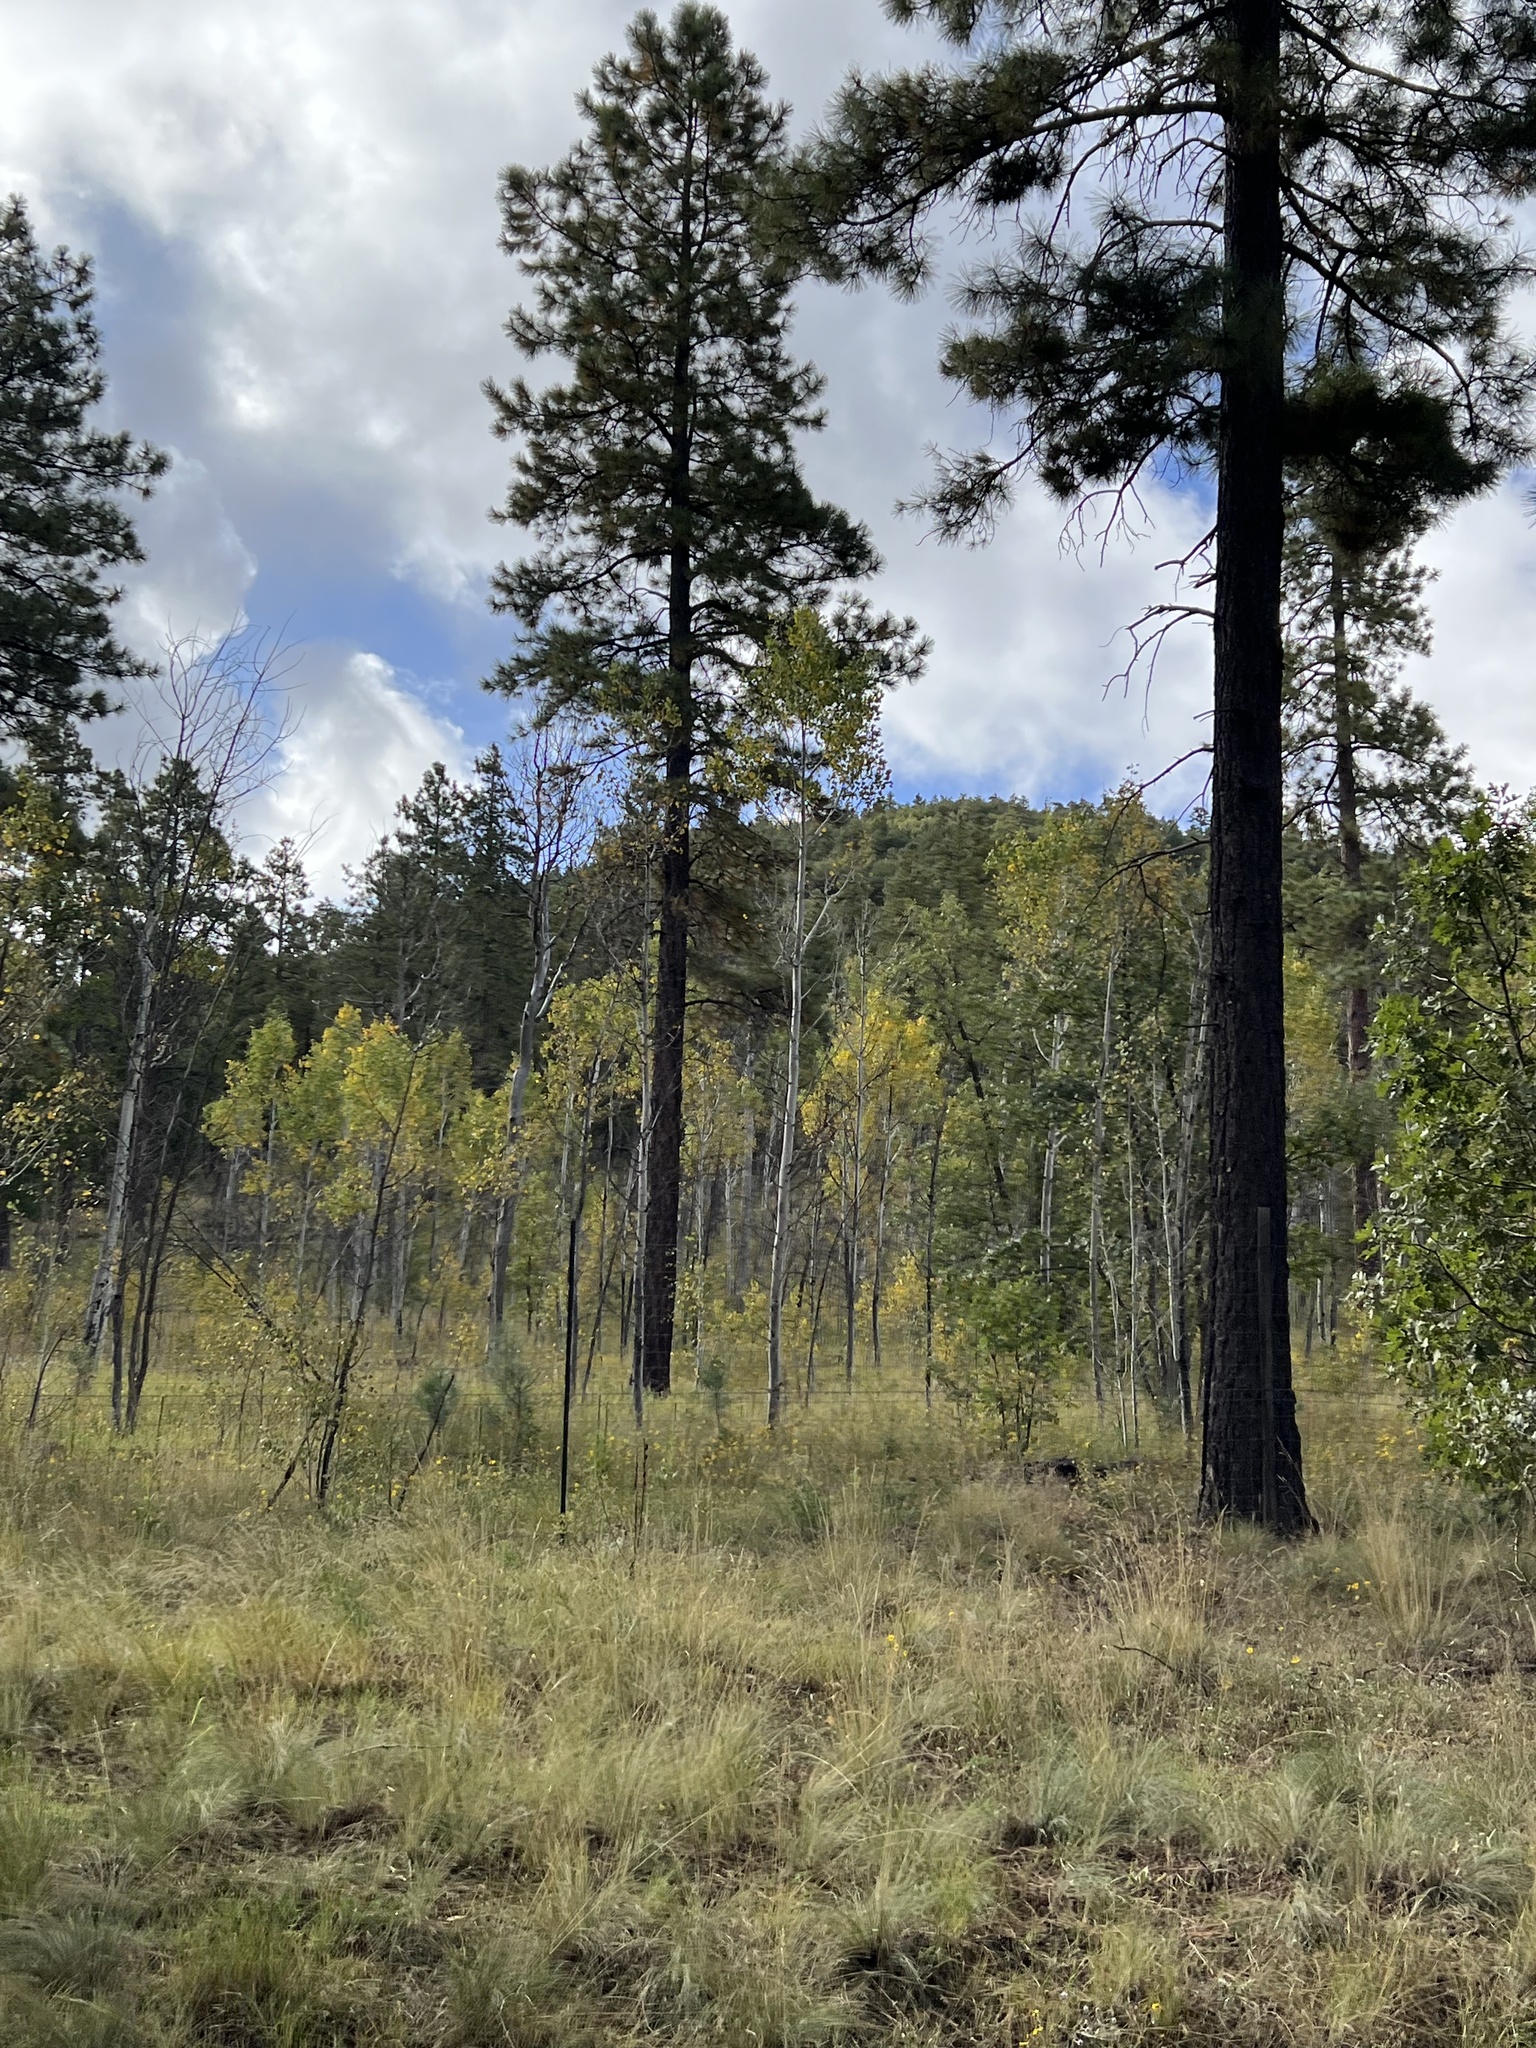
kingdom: Plantae
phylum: Tracheophyta
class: Magnoliopsida
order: Malpighiales
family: Salicaceae
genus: Populus
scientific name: Populus tremuloides
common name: Quaking aspen
